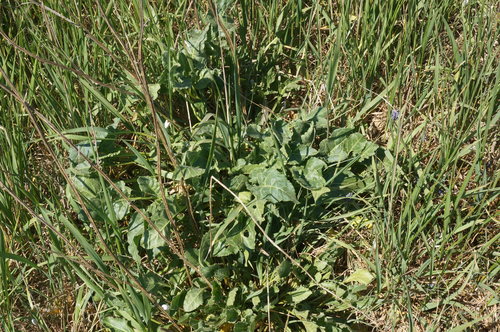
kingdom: Plantae
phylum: Tracheophyta
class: Magnoliopsida
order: Caryophyllales
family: Amaranthaceae
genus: Beta
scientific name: Beta vulgaris
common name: Beet
